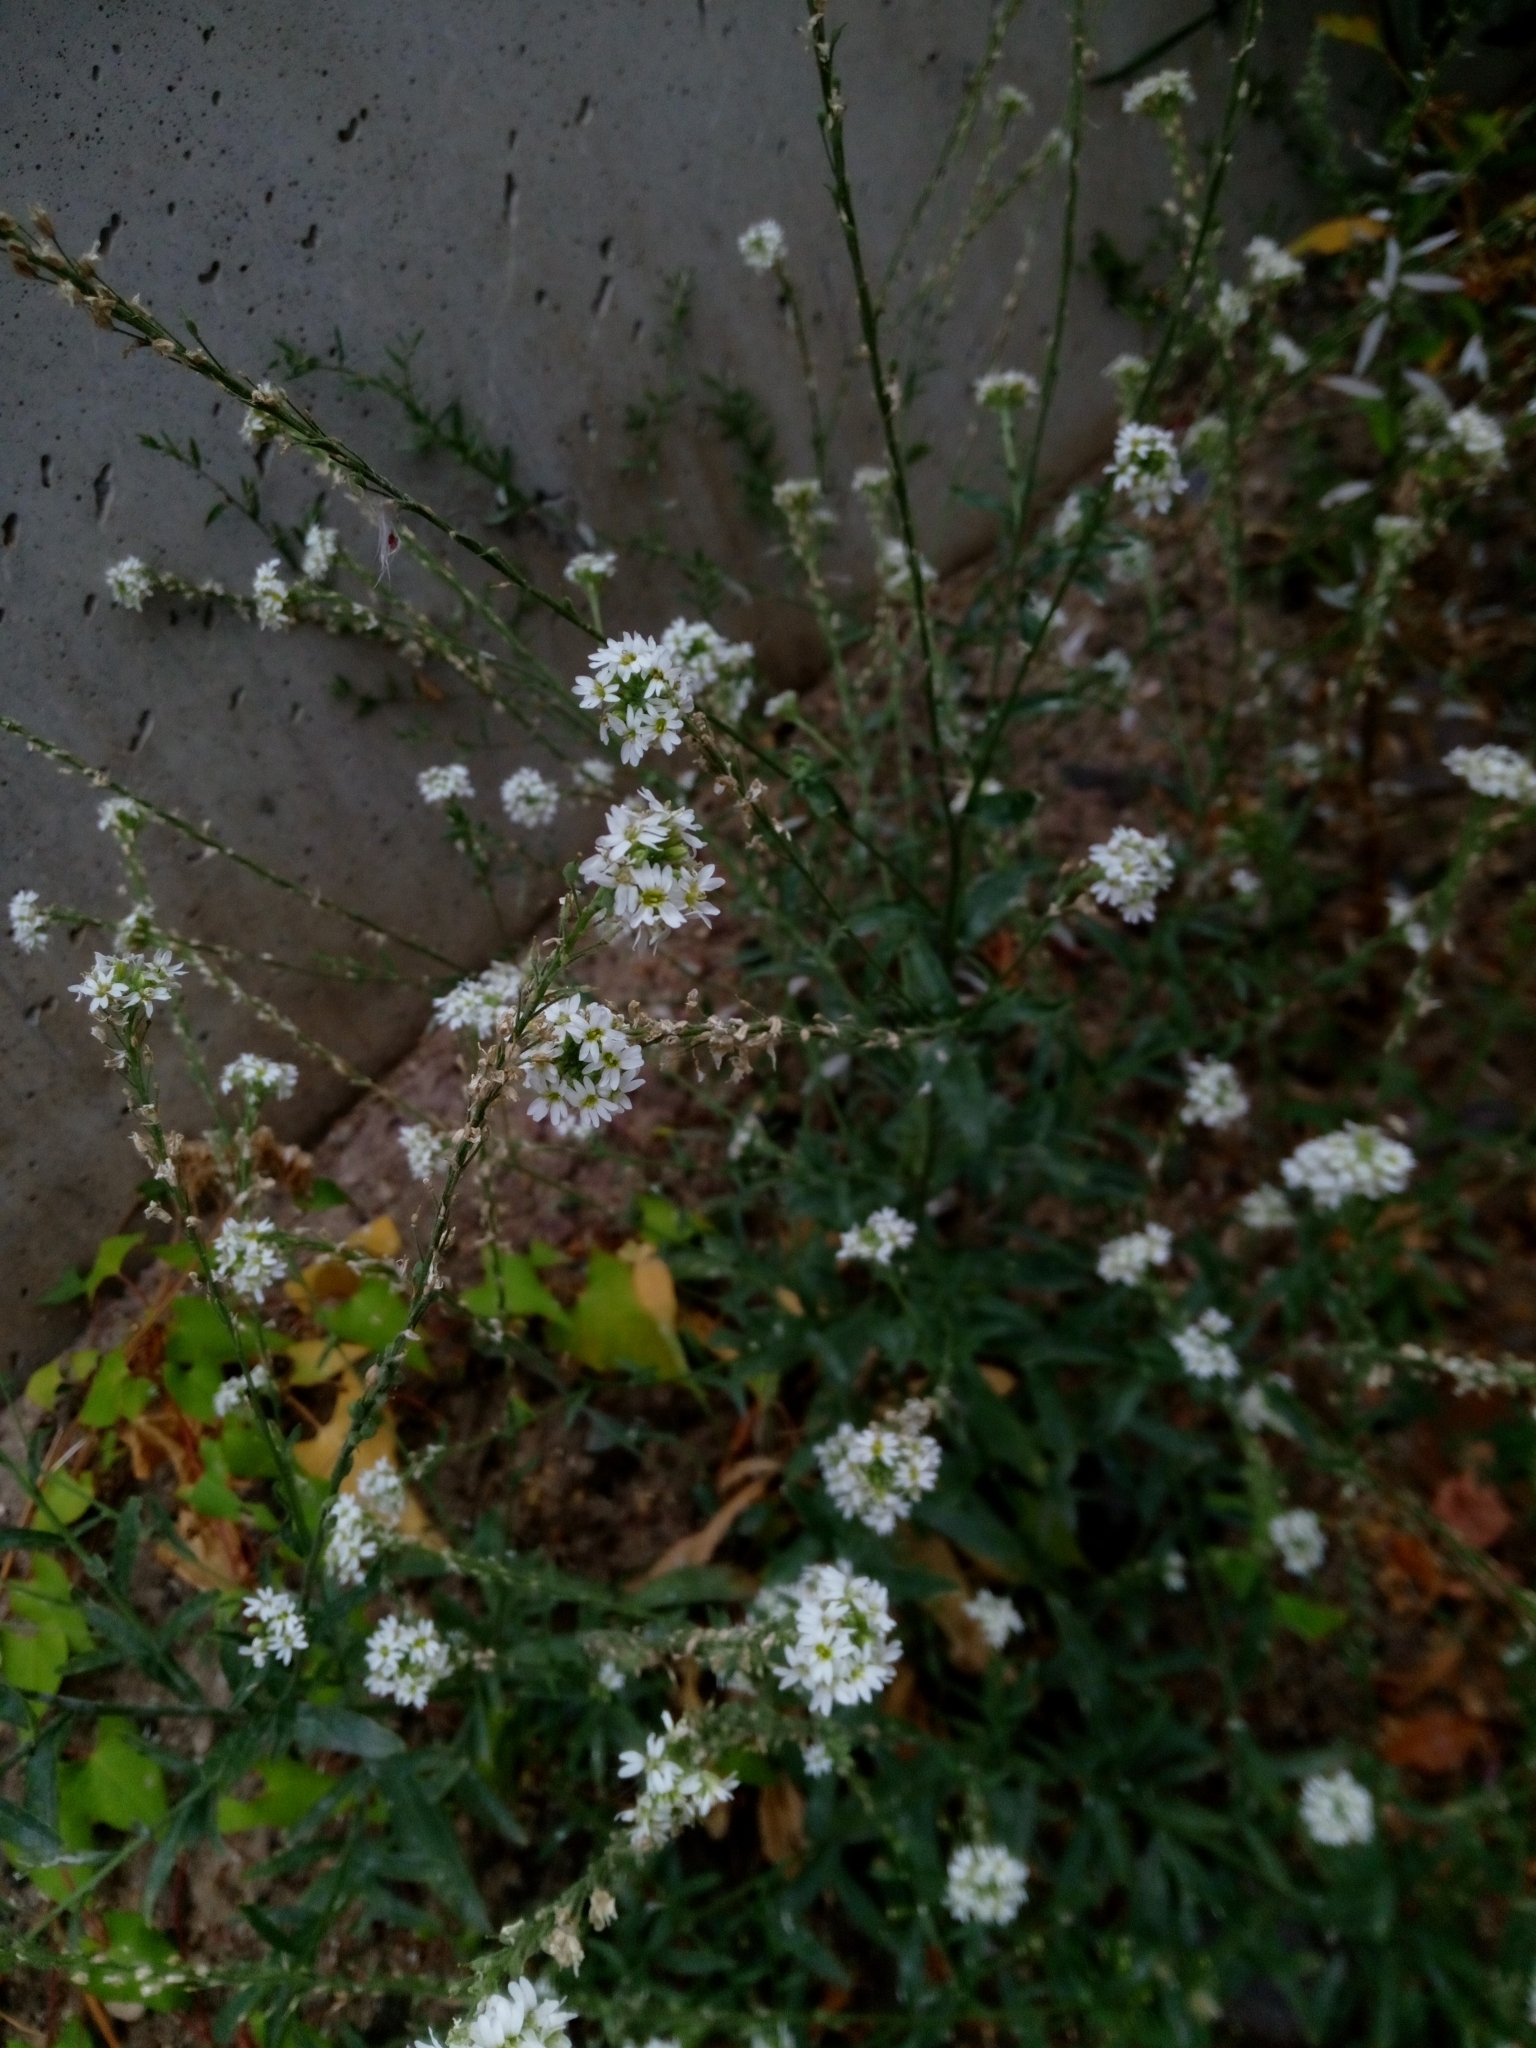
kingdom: Plantae
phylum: Tracheophyta
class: Magnoliopsida
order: Brassicales
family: Brassicaceae
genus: Berteroa
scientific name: Berteroa incana
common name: Hoary alison
